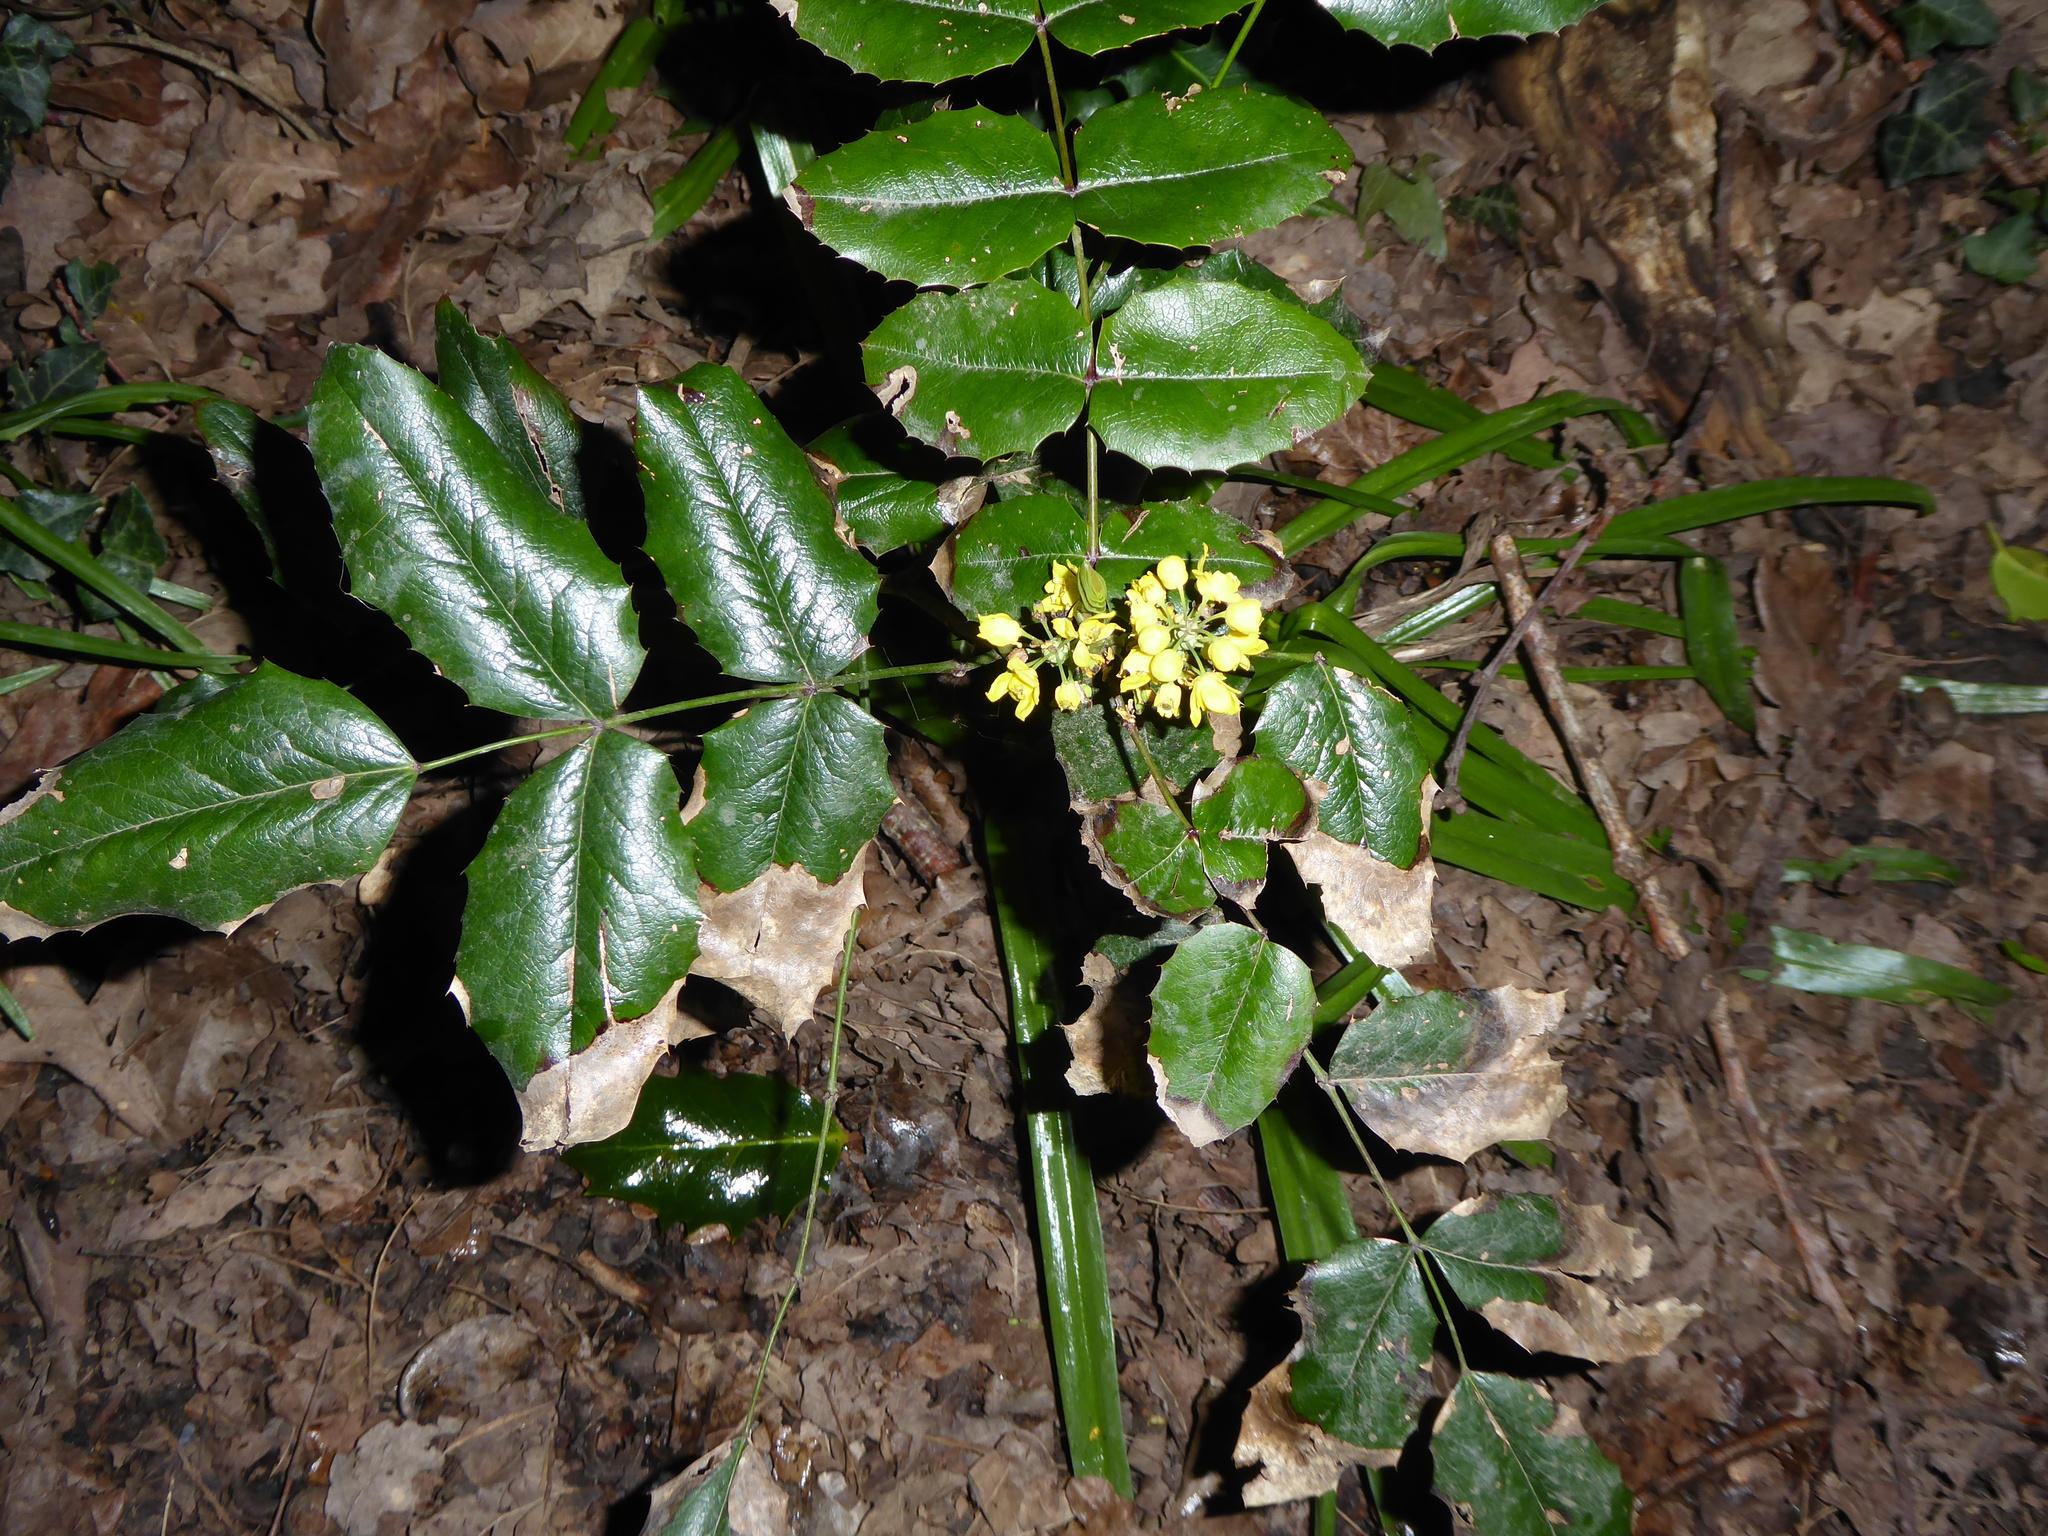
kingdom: Plantae
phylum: Tracheophyta
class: Magnoliopsida
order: Ranunculales
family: Berberidaceae
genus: Mahonia
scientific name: Mahonia aquifolium
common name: Oregon-grape
